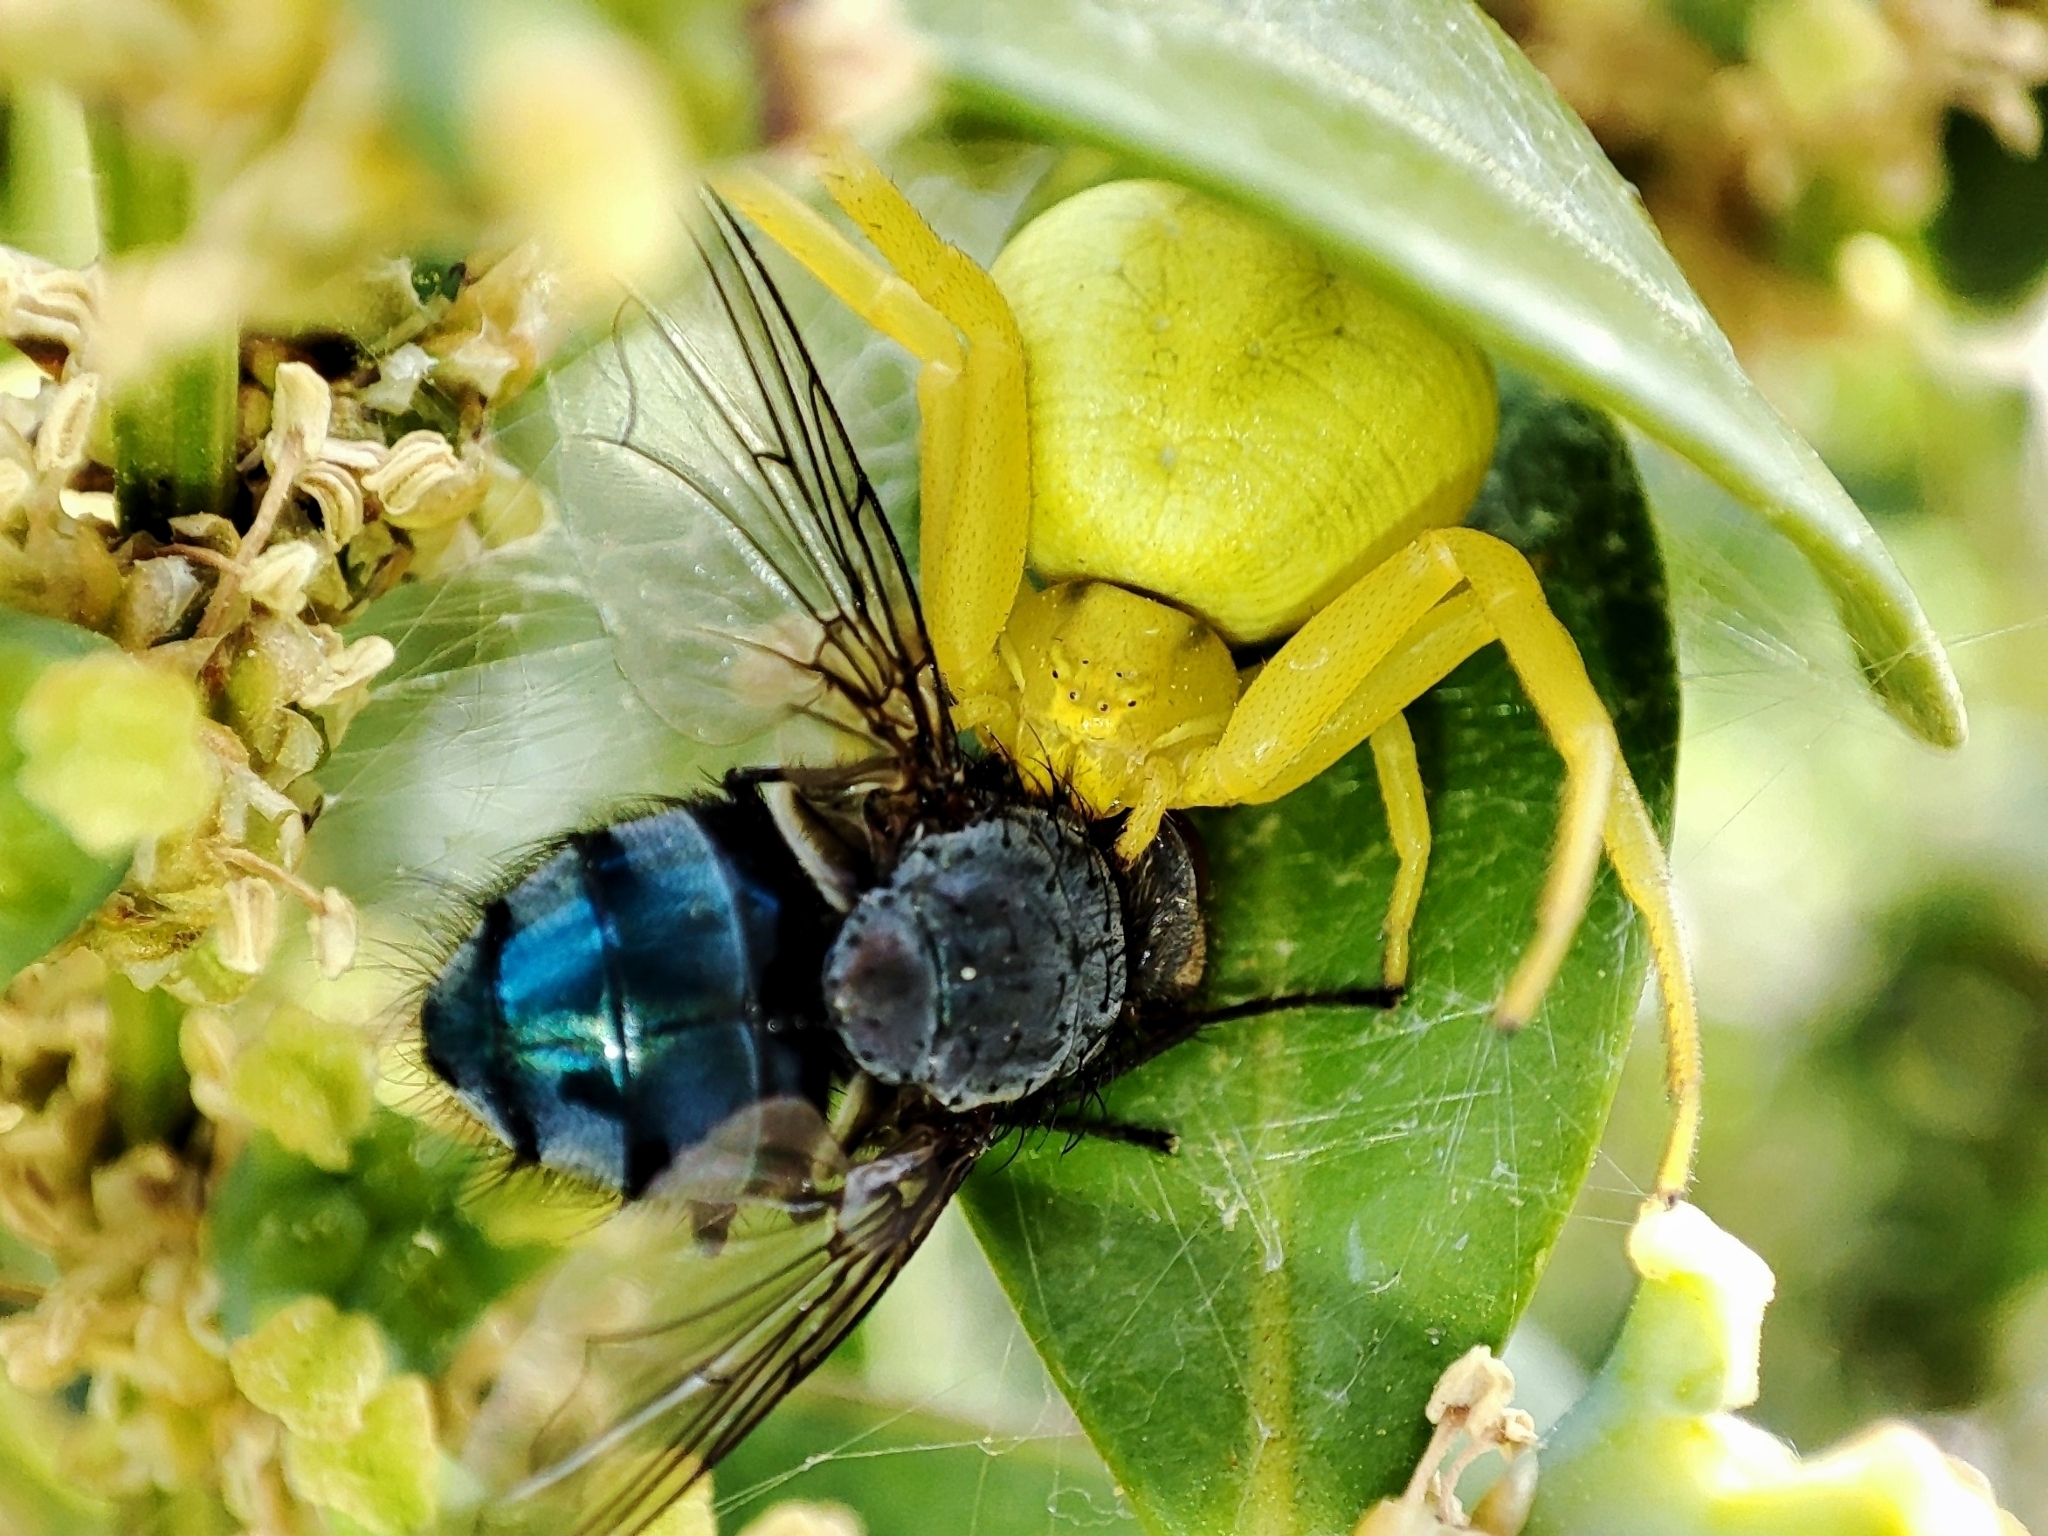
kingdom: Animalia
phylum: Arthropoda
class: Arachnida
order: Araneae
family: Thomisidae
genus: Misumena
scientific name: Misumena vatia
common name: Goldenrod crab spider
